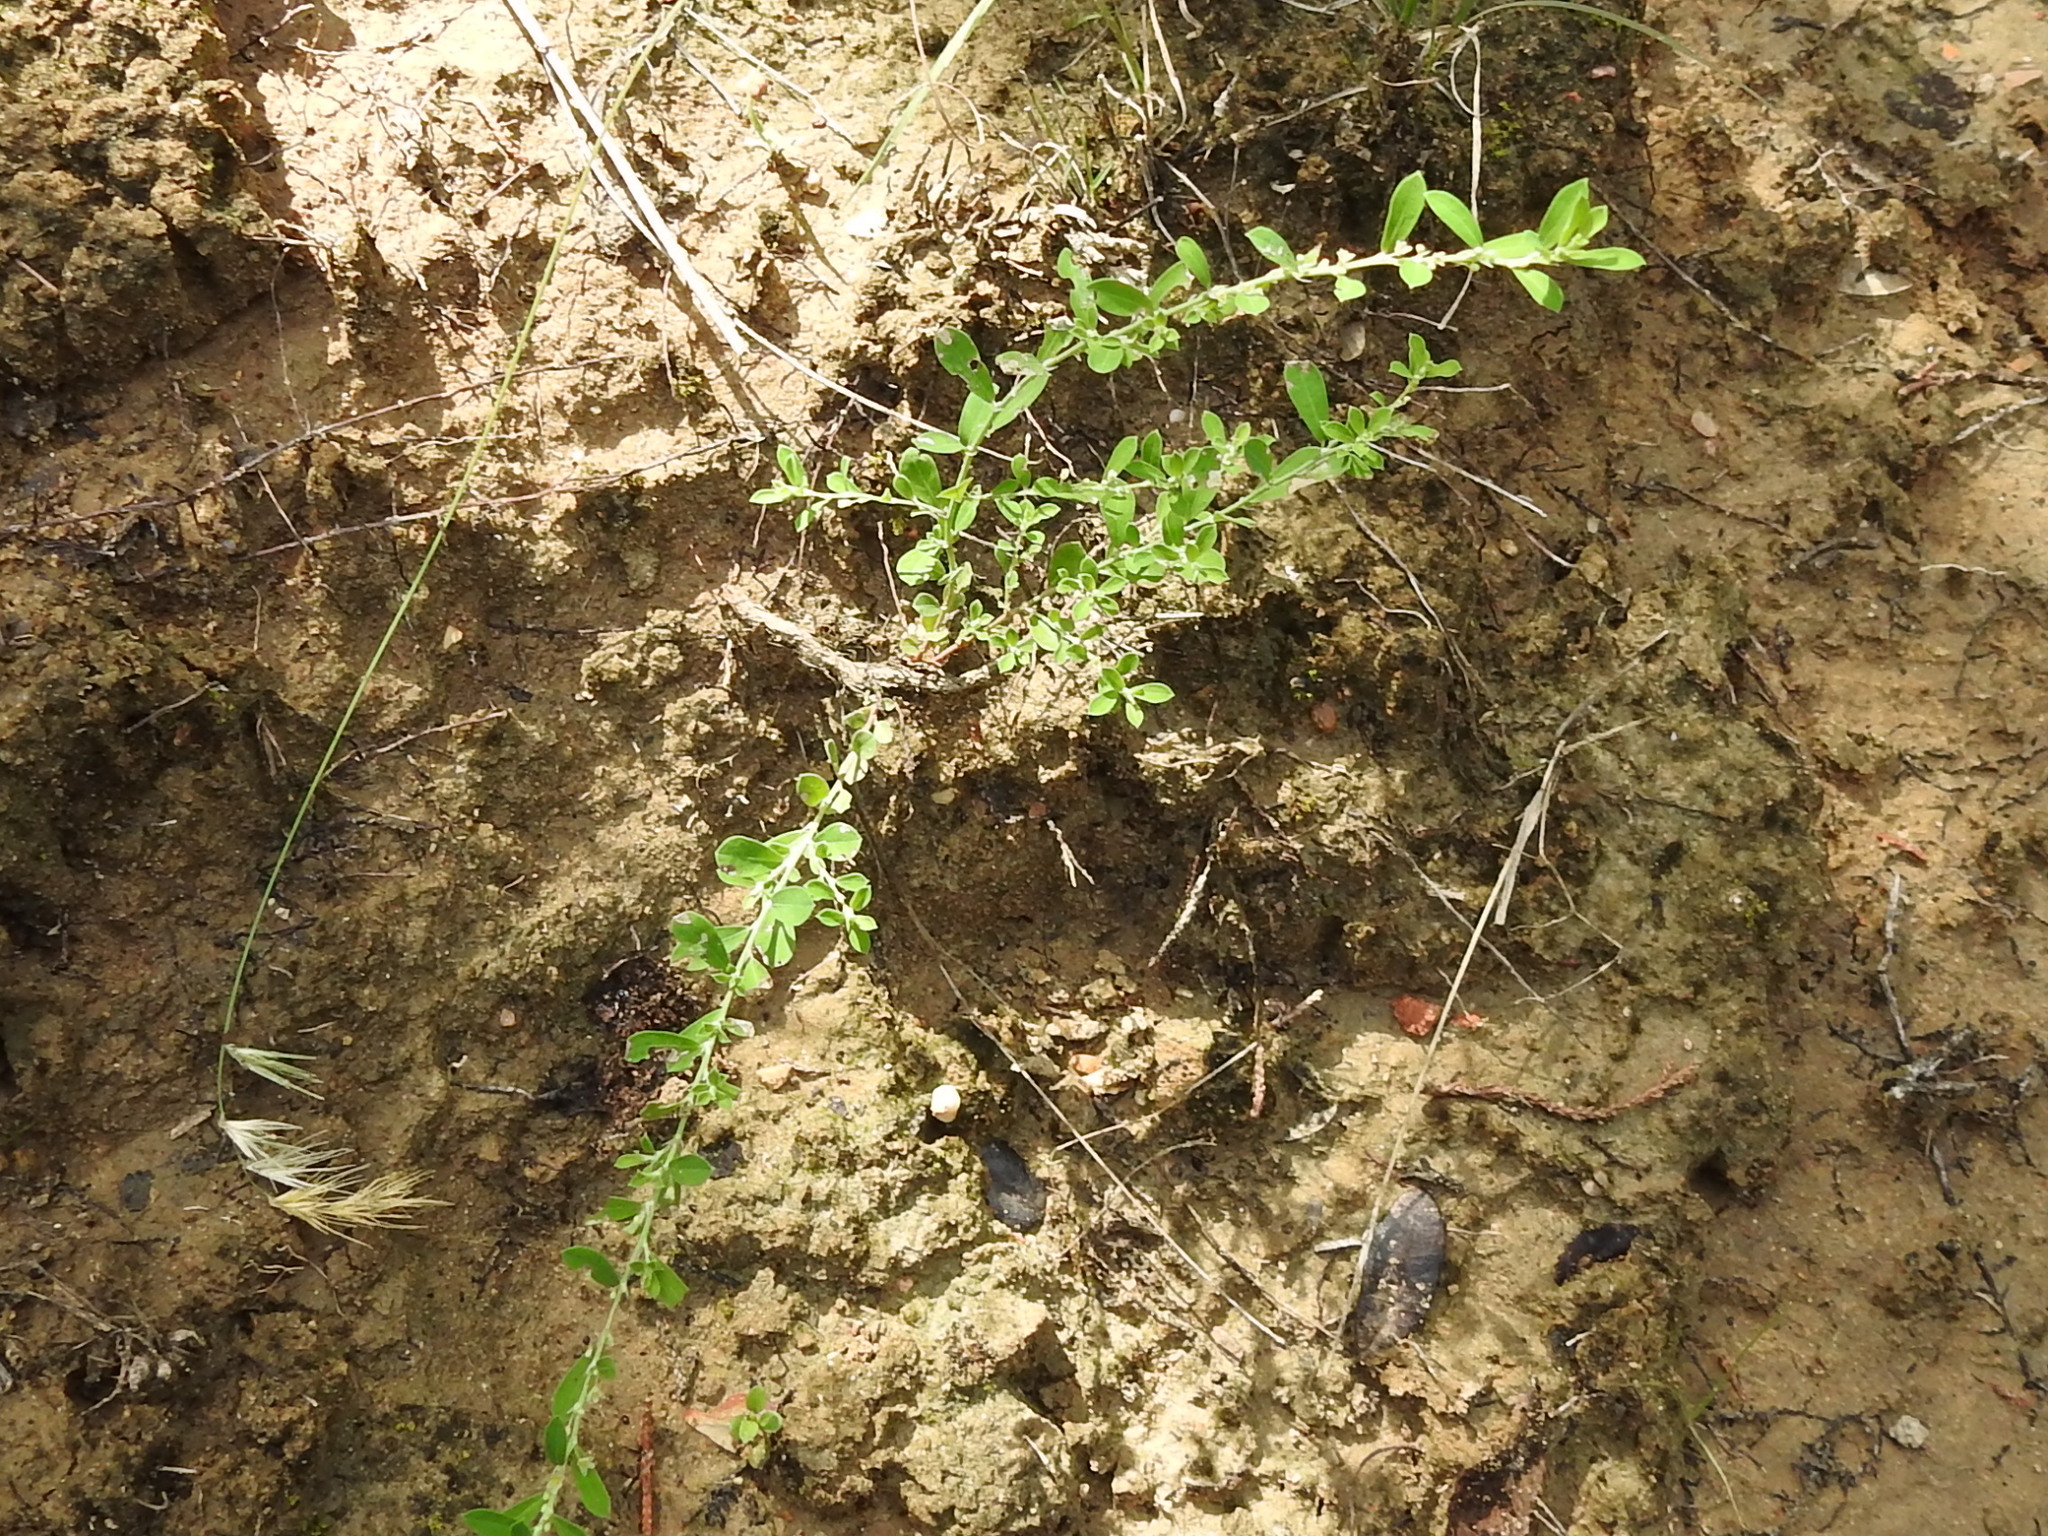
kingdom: Plantae
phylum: Tracheophyta
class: Magnoliopsida
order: Malpighiales
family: Phyllanthaceae
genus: Phyllanthus
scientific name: Phyllanthus polygonoides
